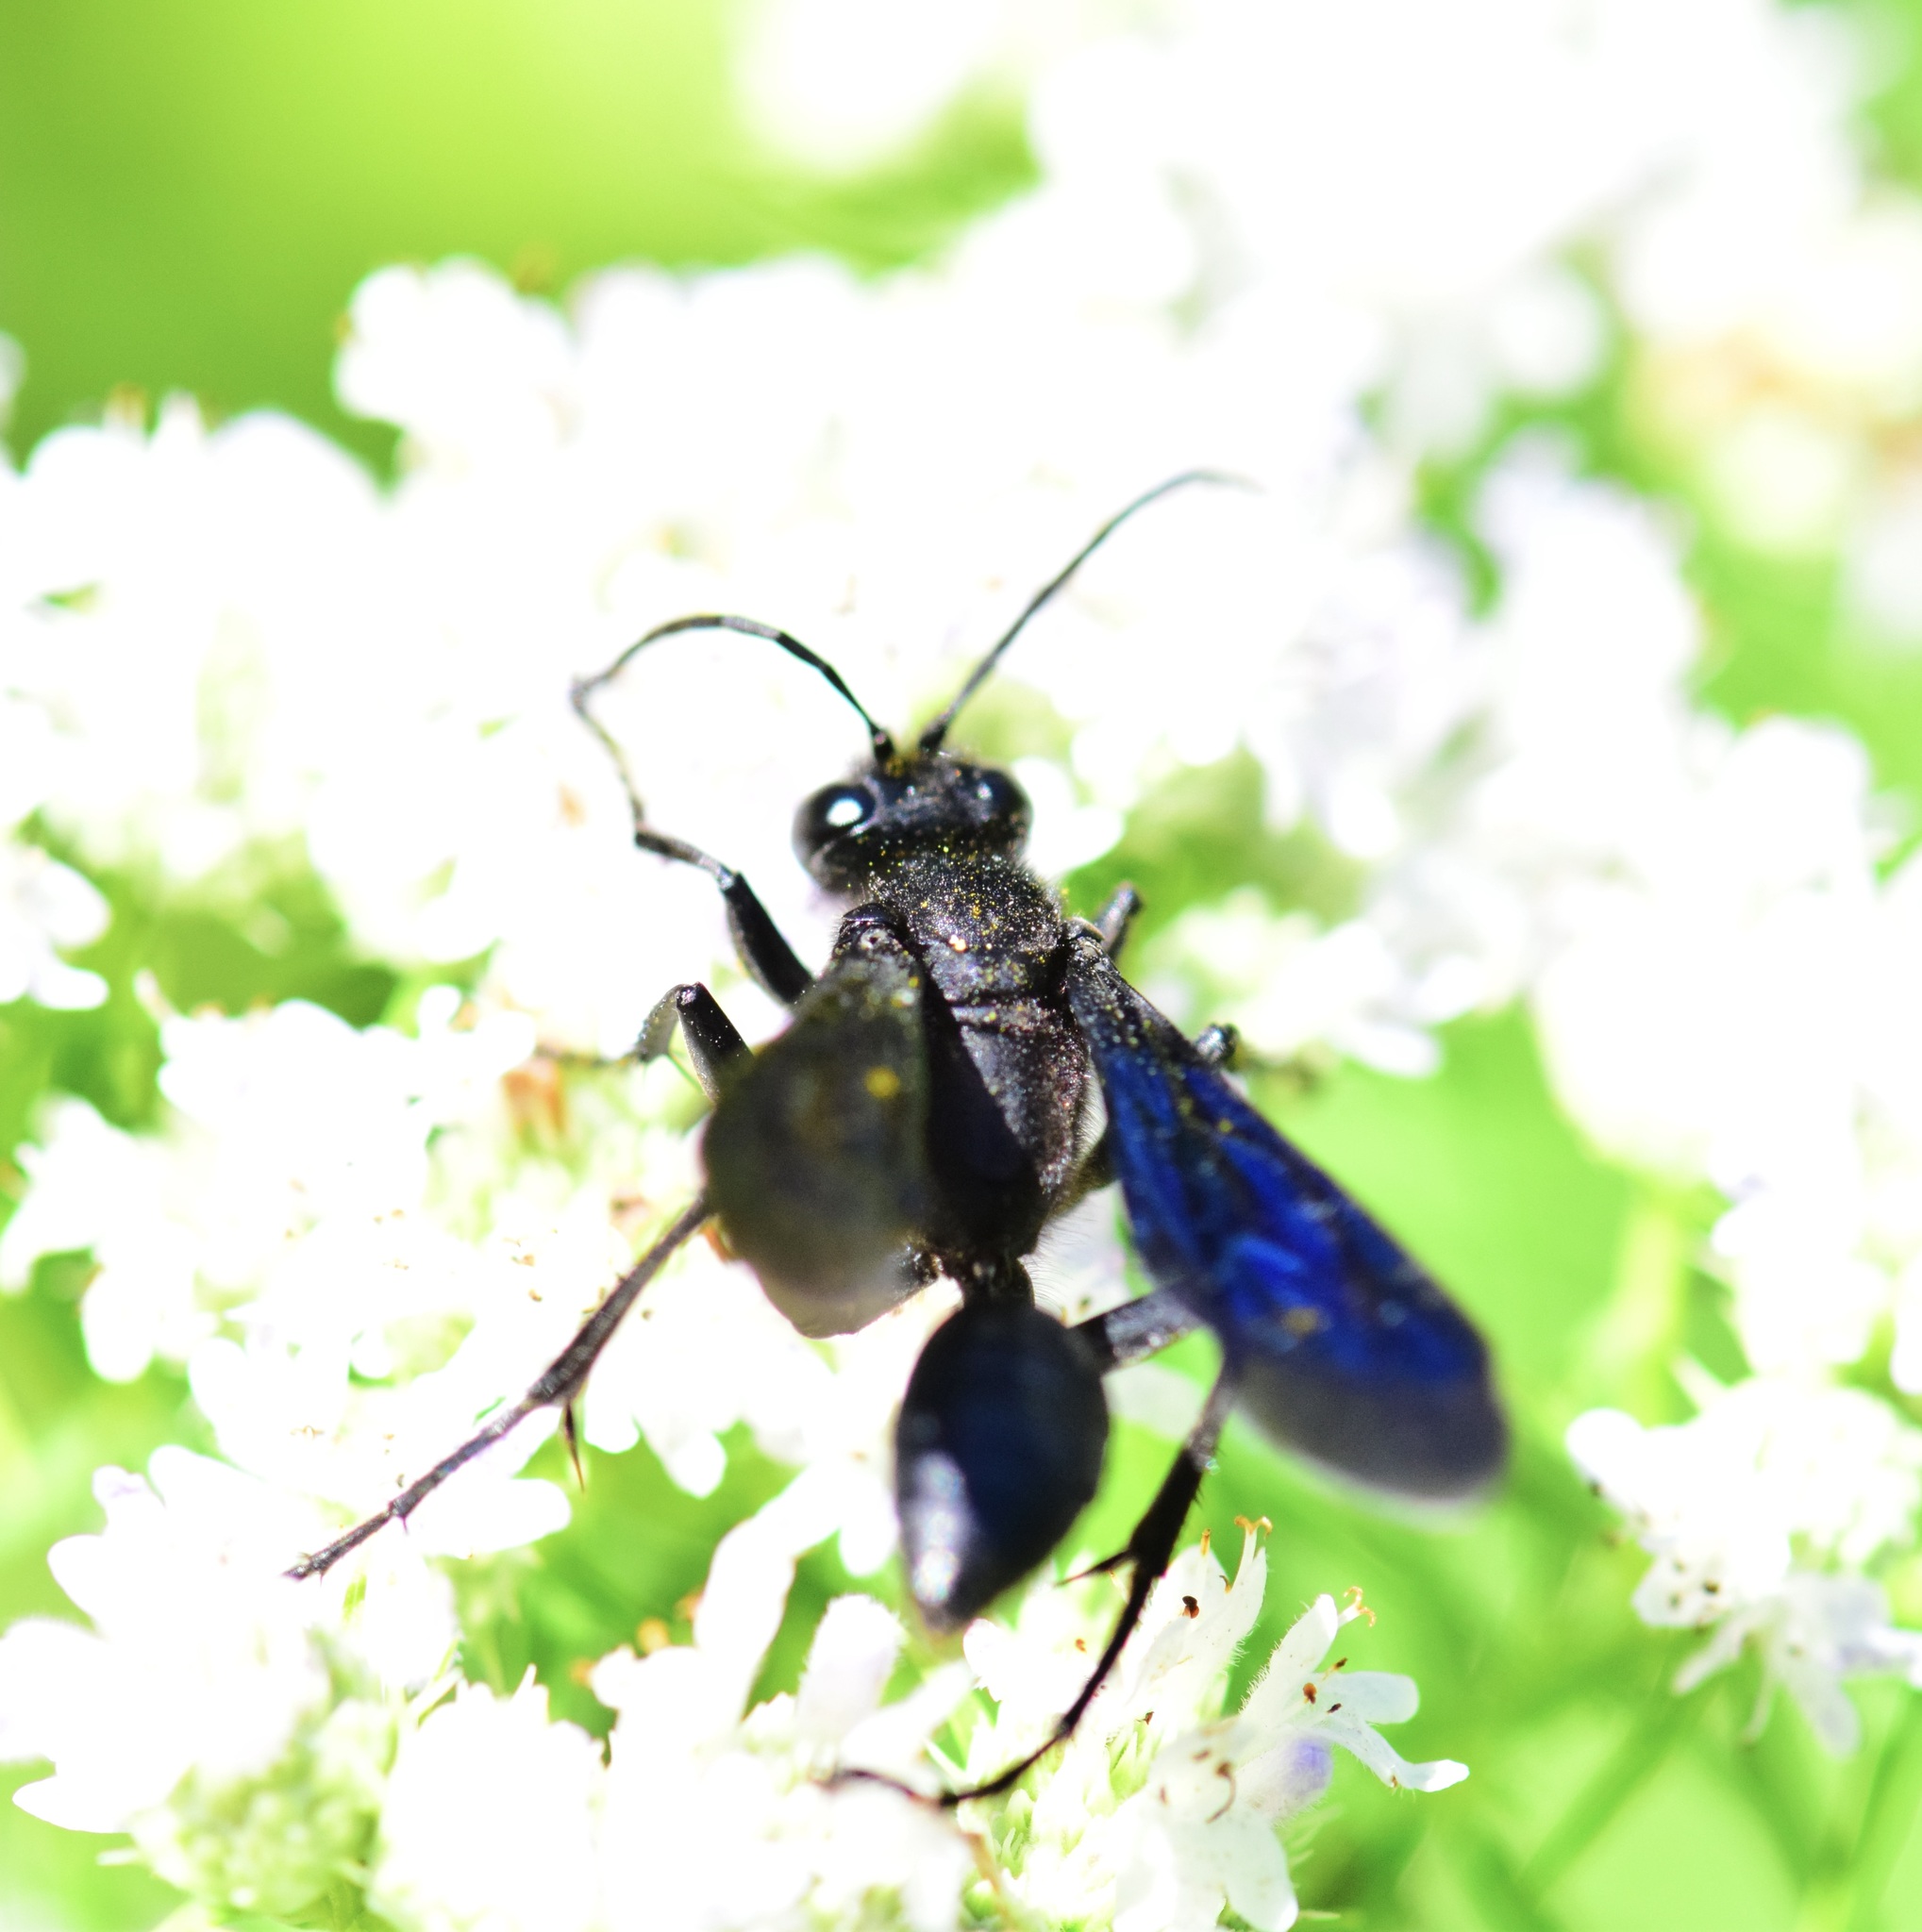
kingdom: Animalia
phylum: Arthropoda
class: Insecta
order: Hymenoptera
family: Sphecidae
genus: Sphex
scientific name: Sphex pensylvanicus
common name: Great black digger wasp
